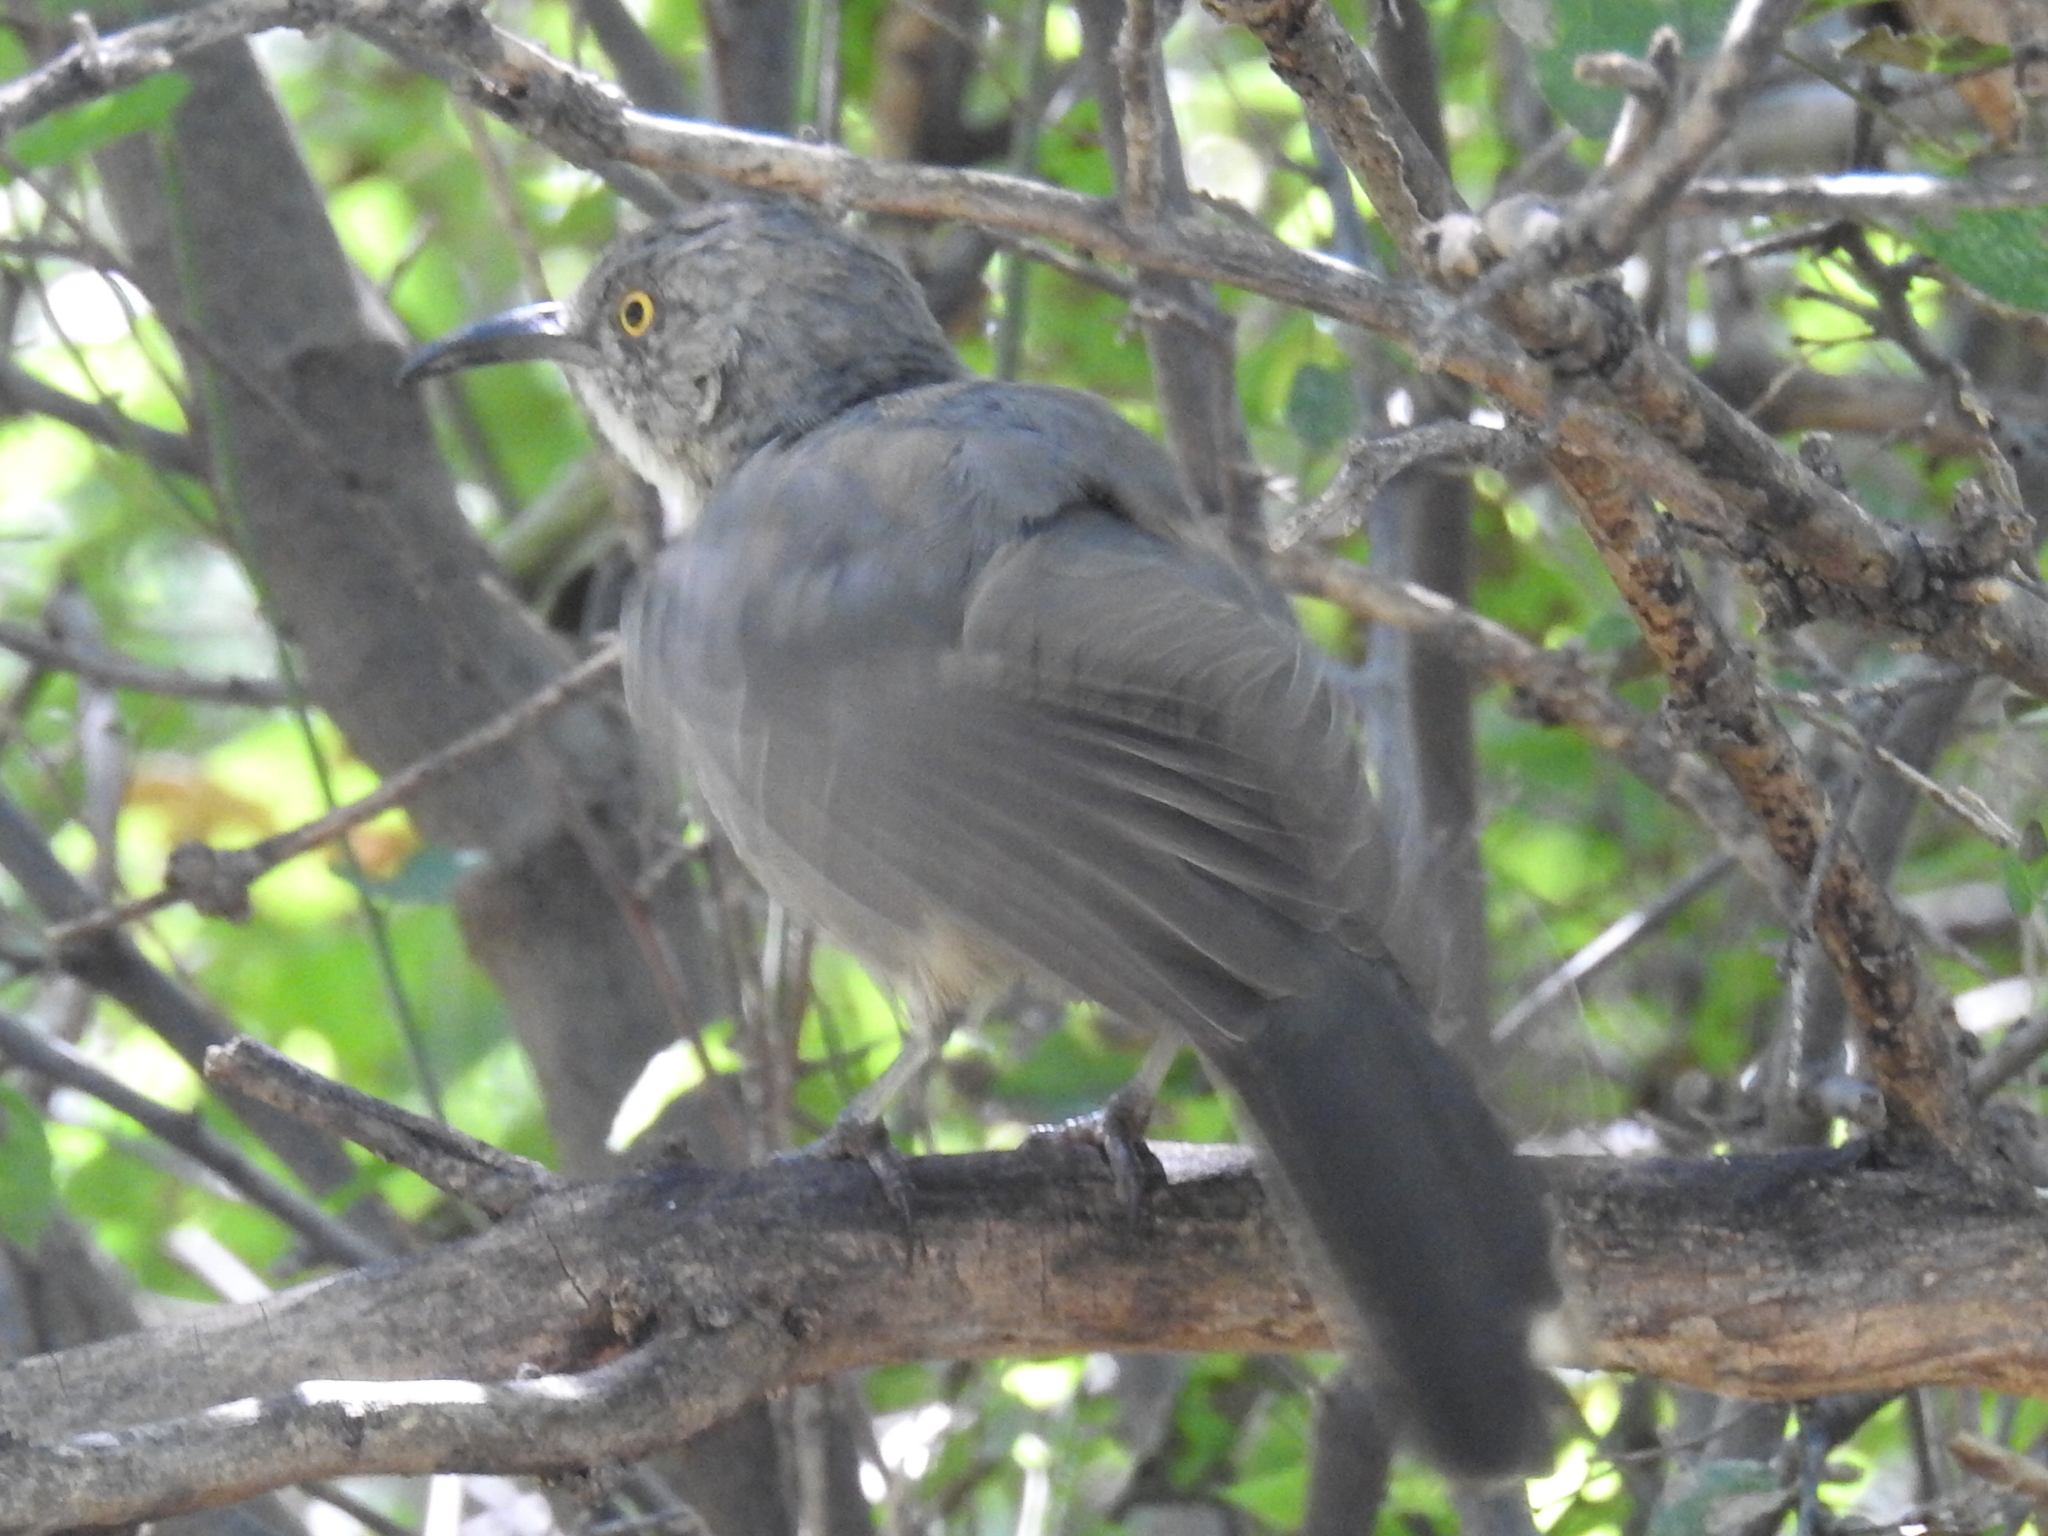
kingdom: Animalia
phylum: Chordata
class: Aves
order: Passeriformes
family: Mimidae
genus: Toxostoma
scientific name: Toxostoma curvirostre
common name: Curve-billed thrasher
